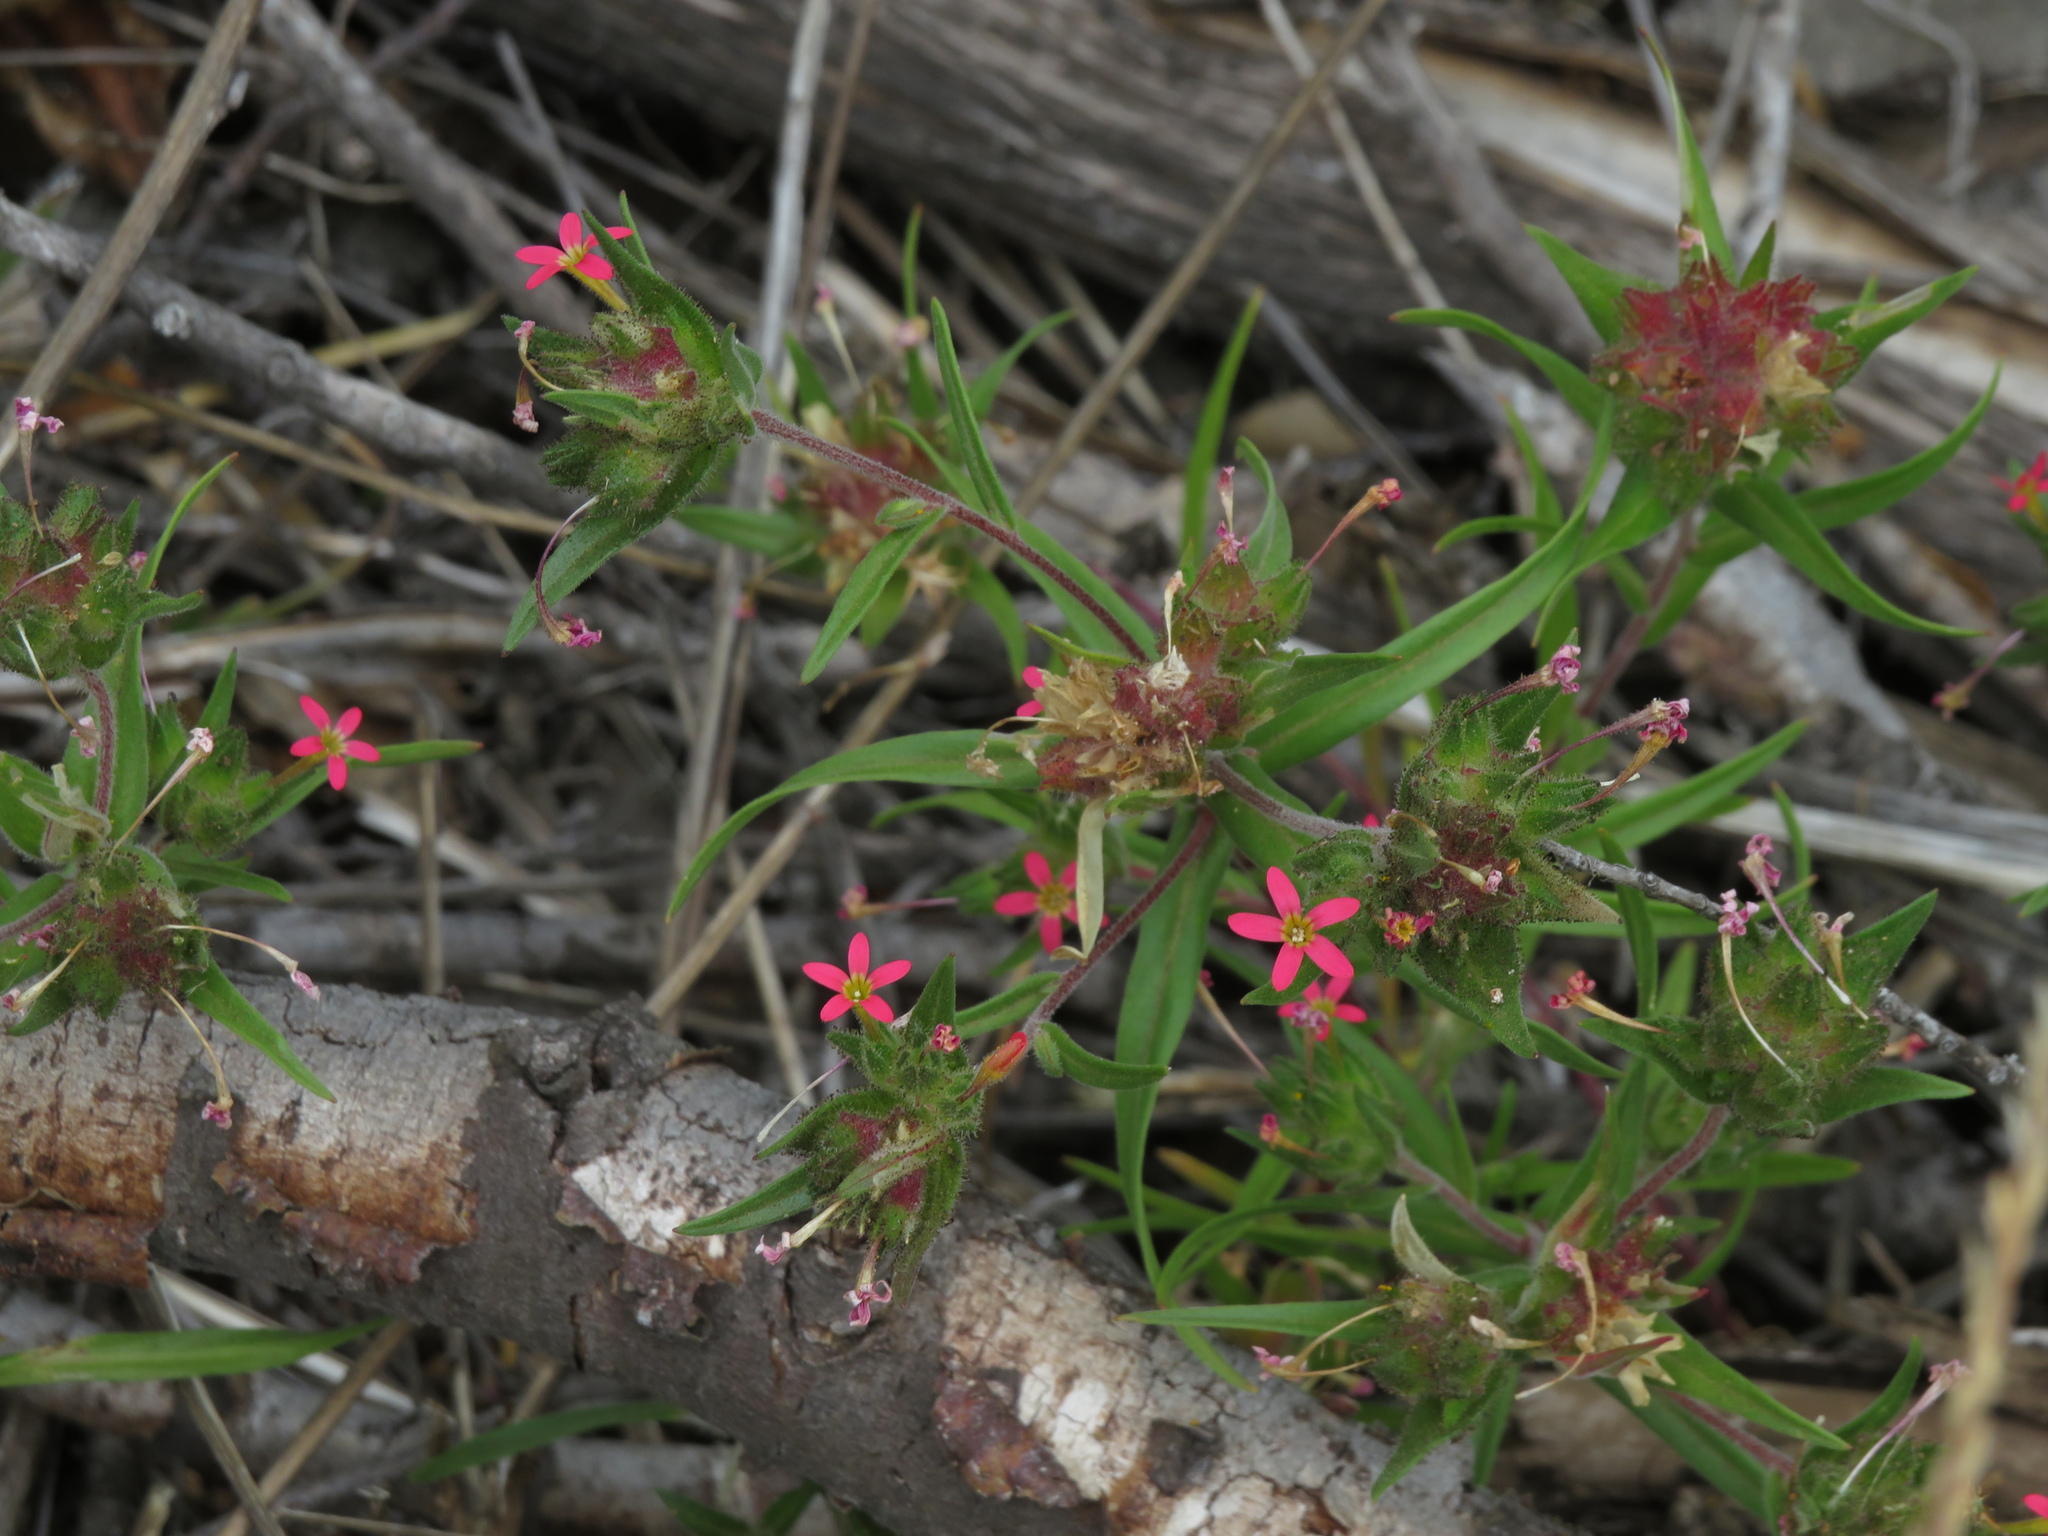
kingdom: Plantae
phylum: Tracheophyta
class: Magnoliopsida
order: Ericales
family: Polemoniaceae
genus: Collomia
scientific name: Collomia biflora
